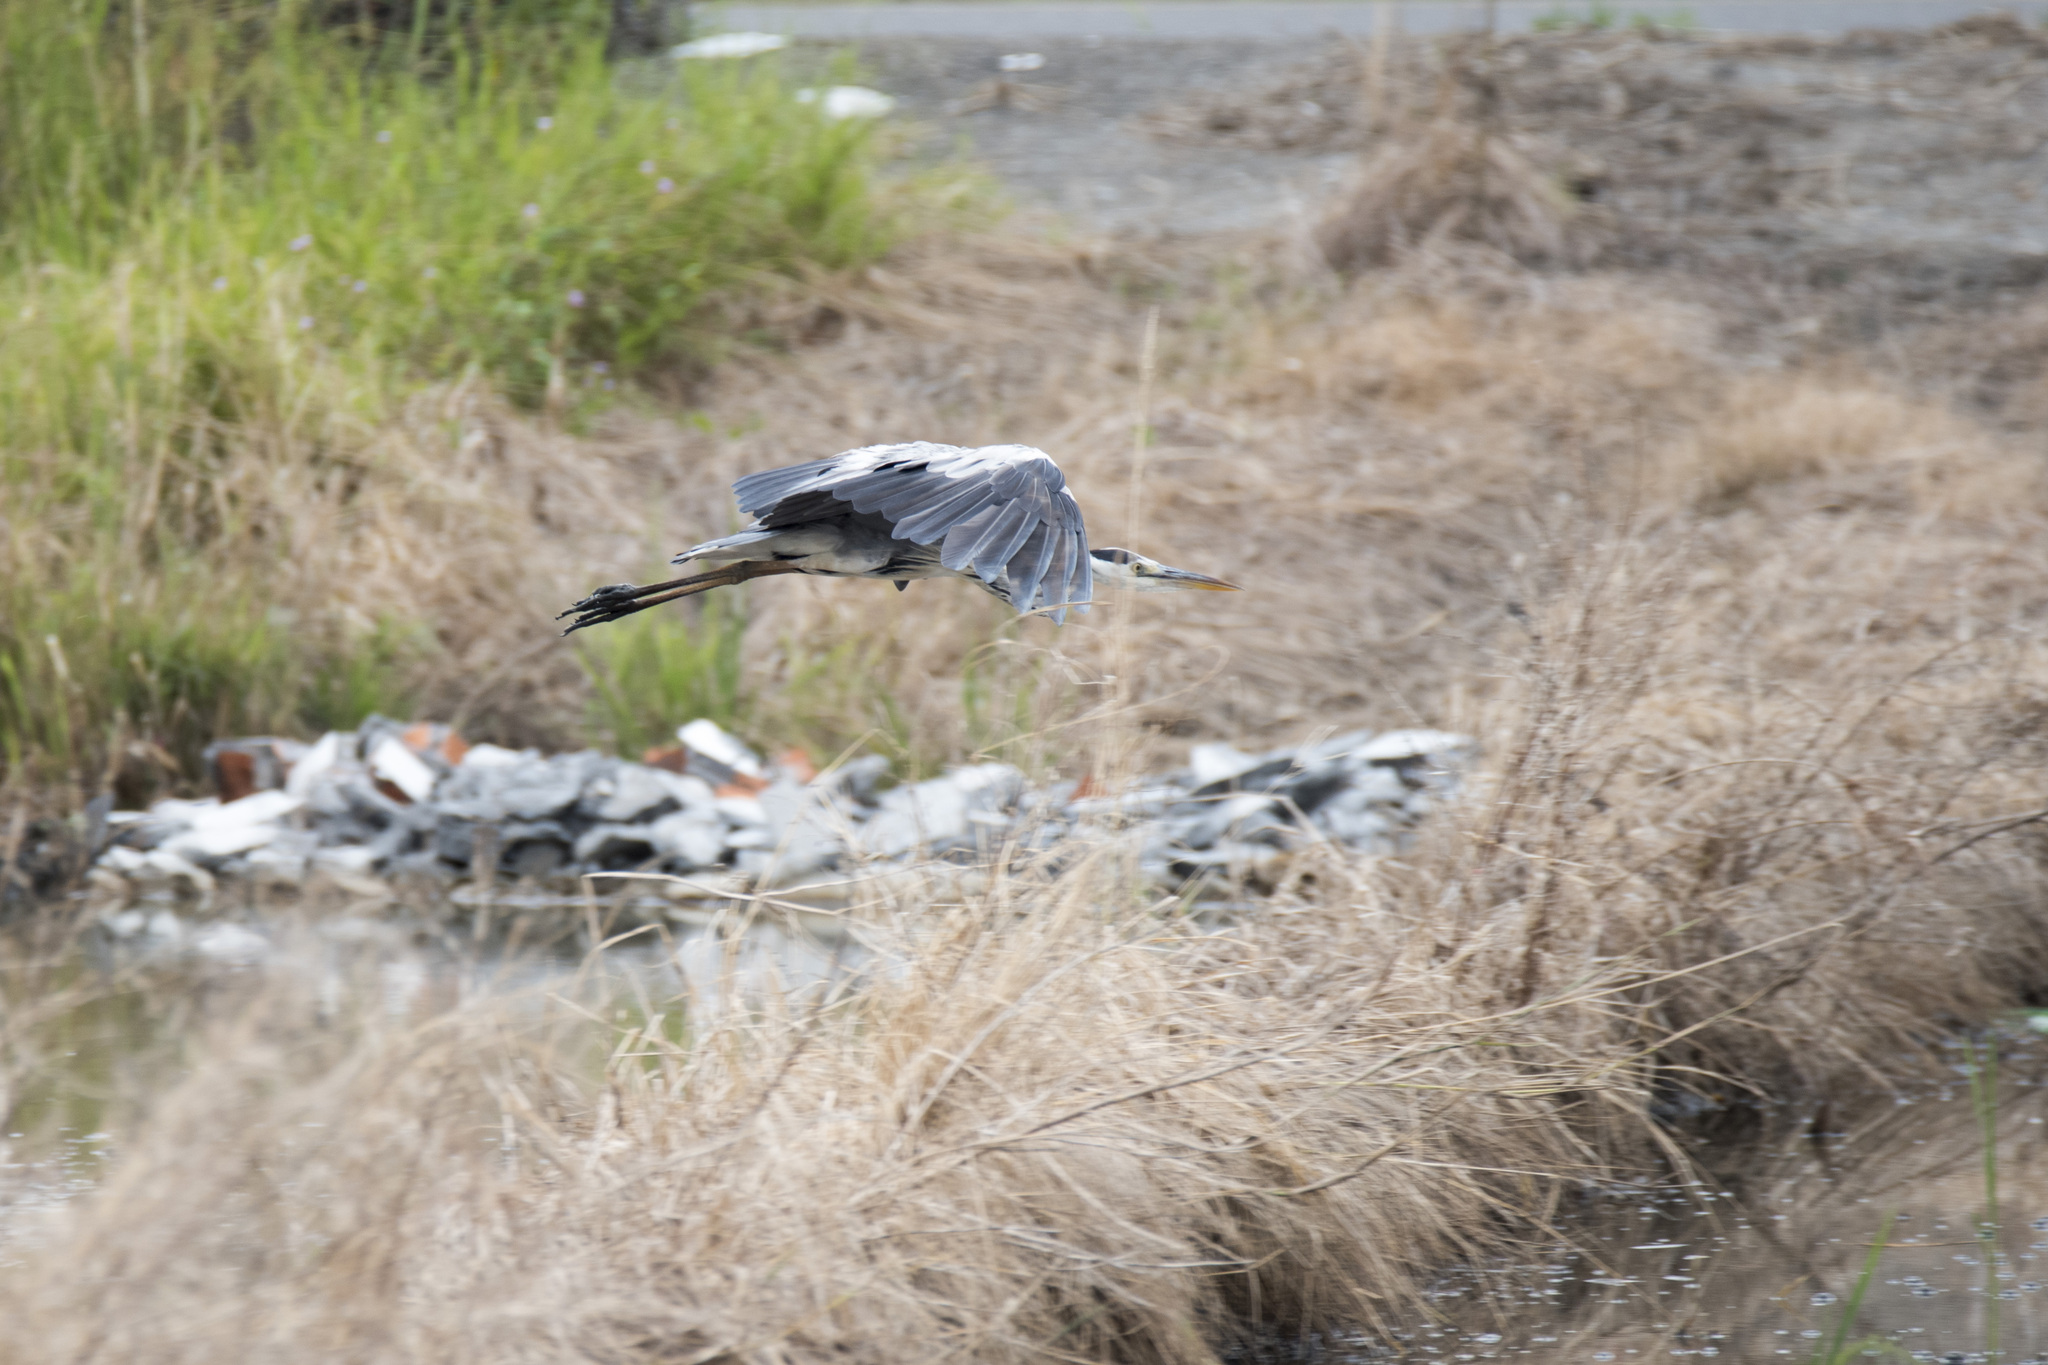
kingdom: Animalia
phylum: Chordata
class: Aves
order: Pelecaniformes
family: Ardeidae
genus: Ardea
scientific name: Ardea cinerea
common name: Grey heron
